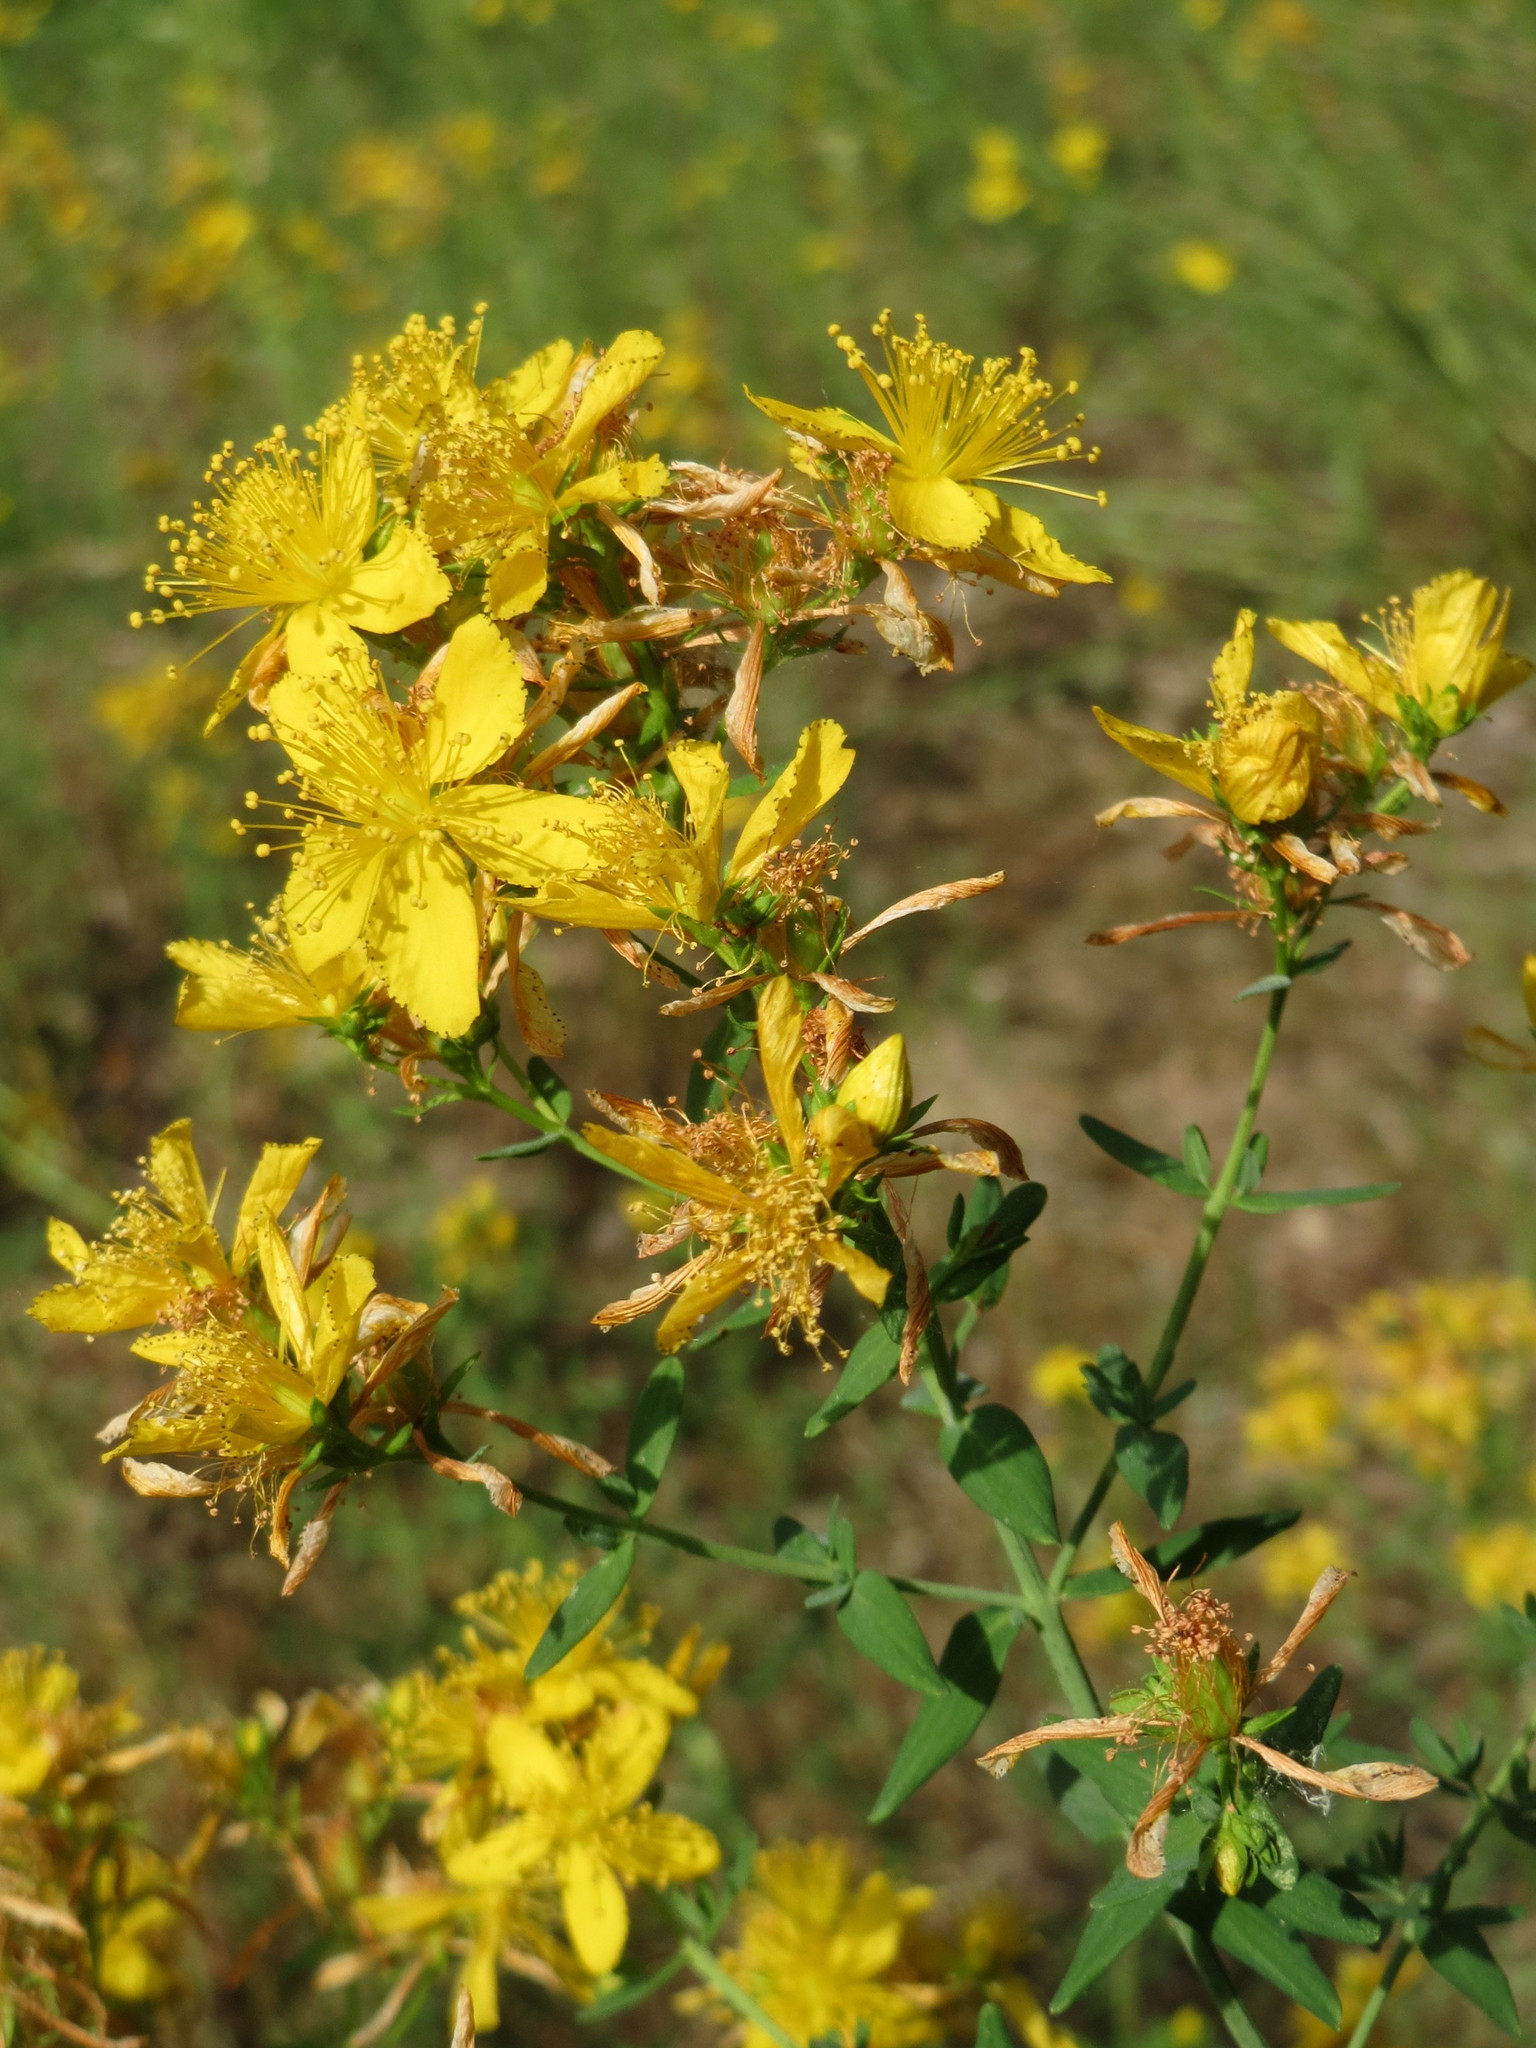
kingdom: Plantae
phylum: Tracheophyta
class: Magnoliopsida
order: Malpighiales
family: Hypericaceae
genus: Hypericum
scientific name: Hypericum perforatum
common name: Common st. johnswort
